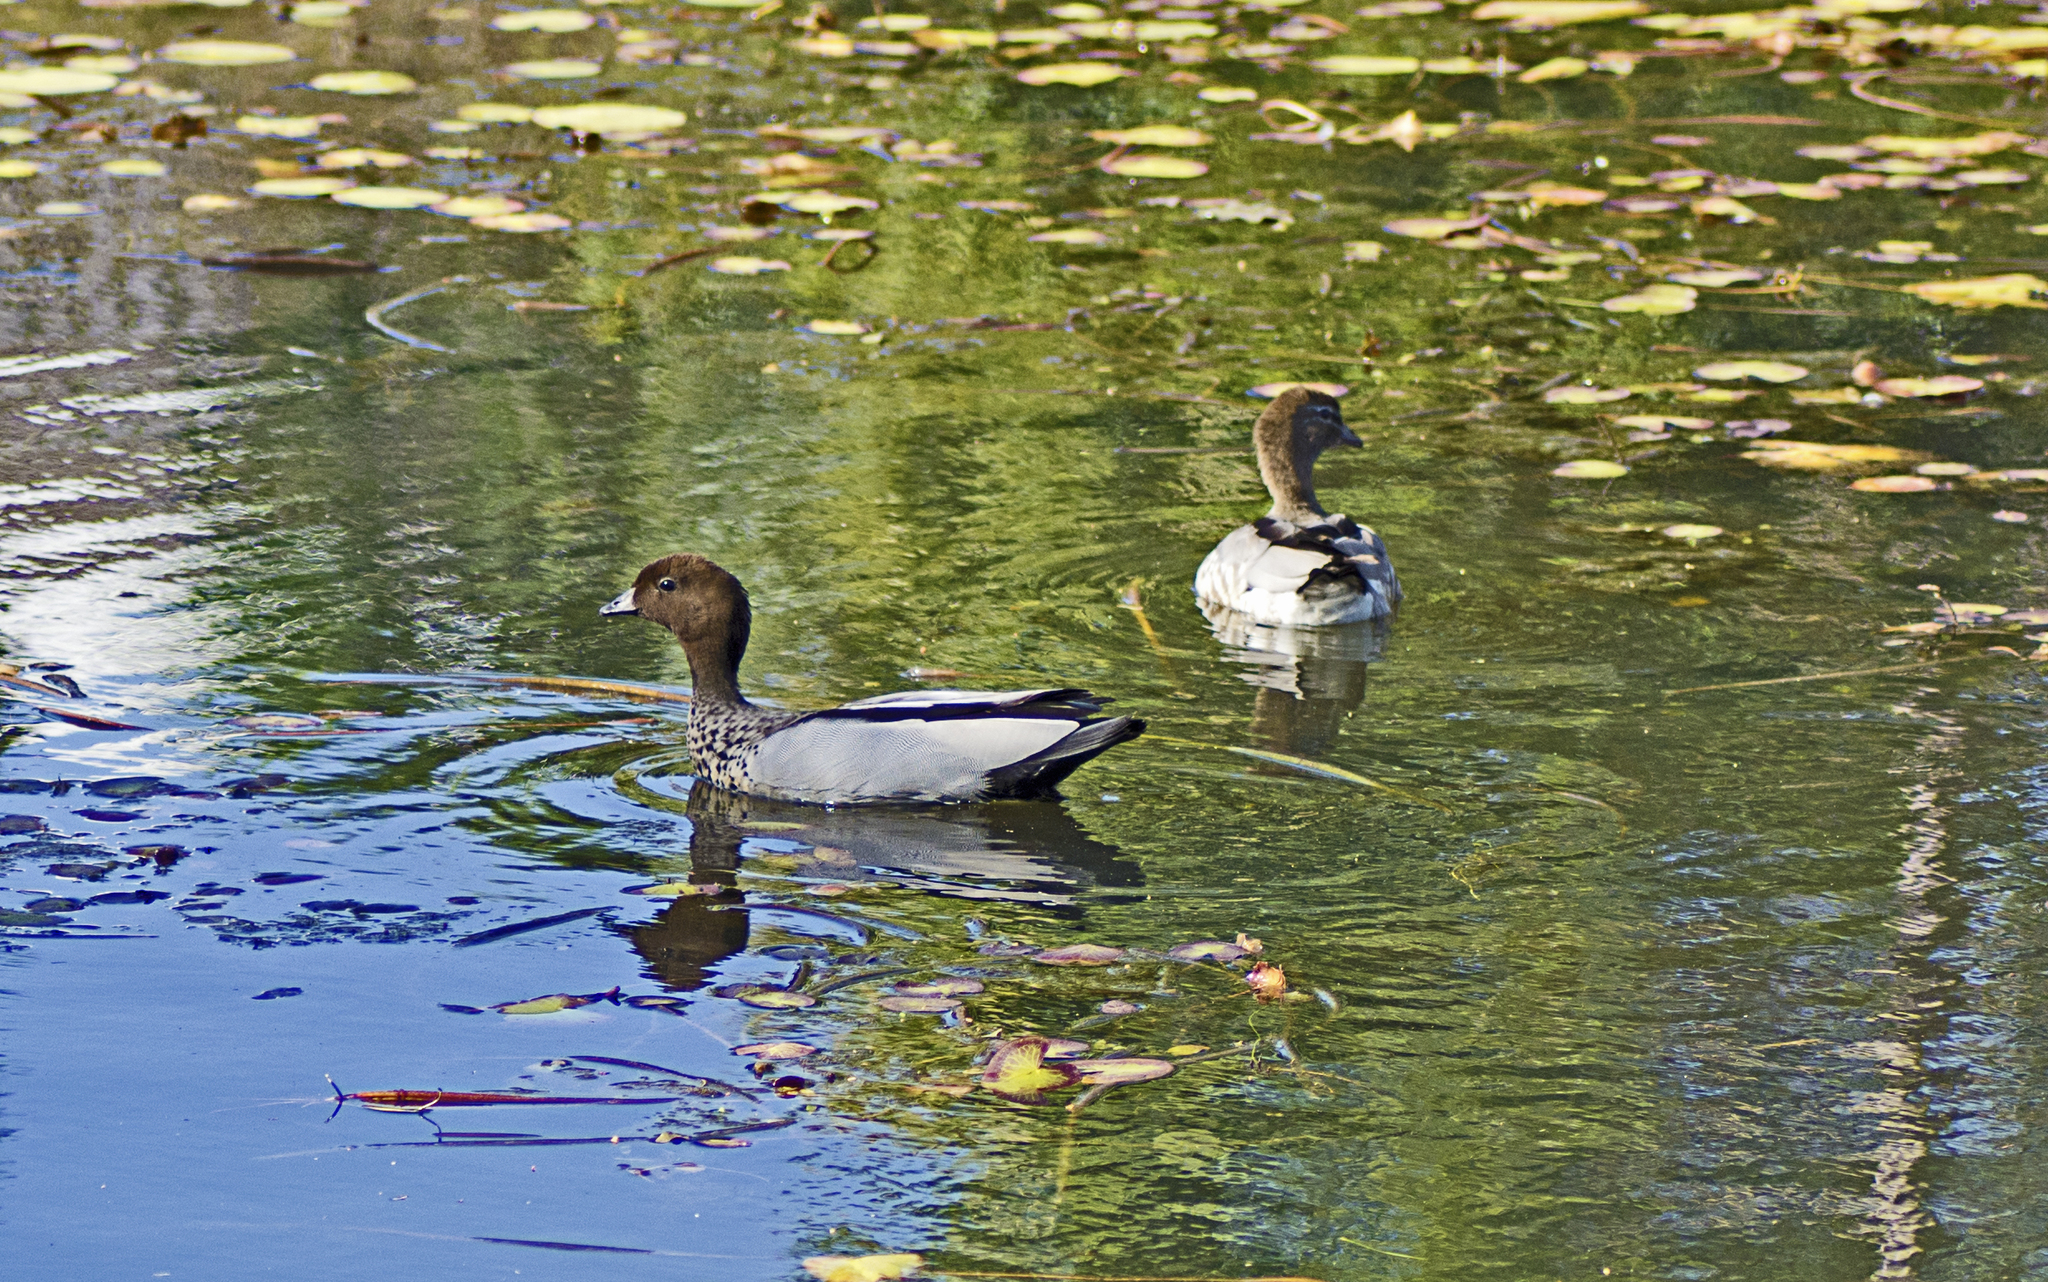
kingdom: Animalia
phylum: Chordata
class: Aves
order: Anseriformes
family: Anatidae
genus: Chenonetta
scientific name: Chenonetta jubata
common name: Maned duck
